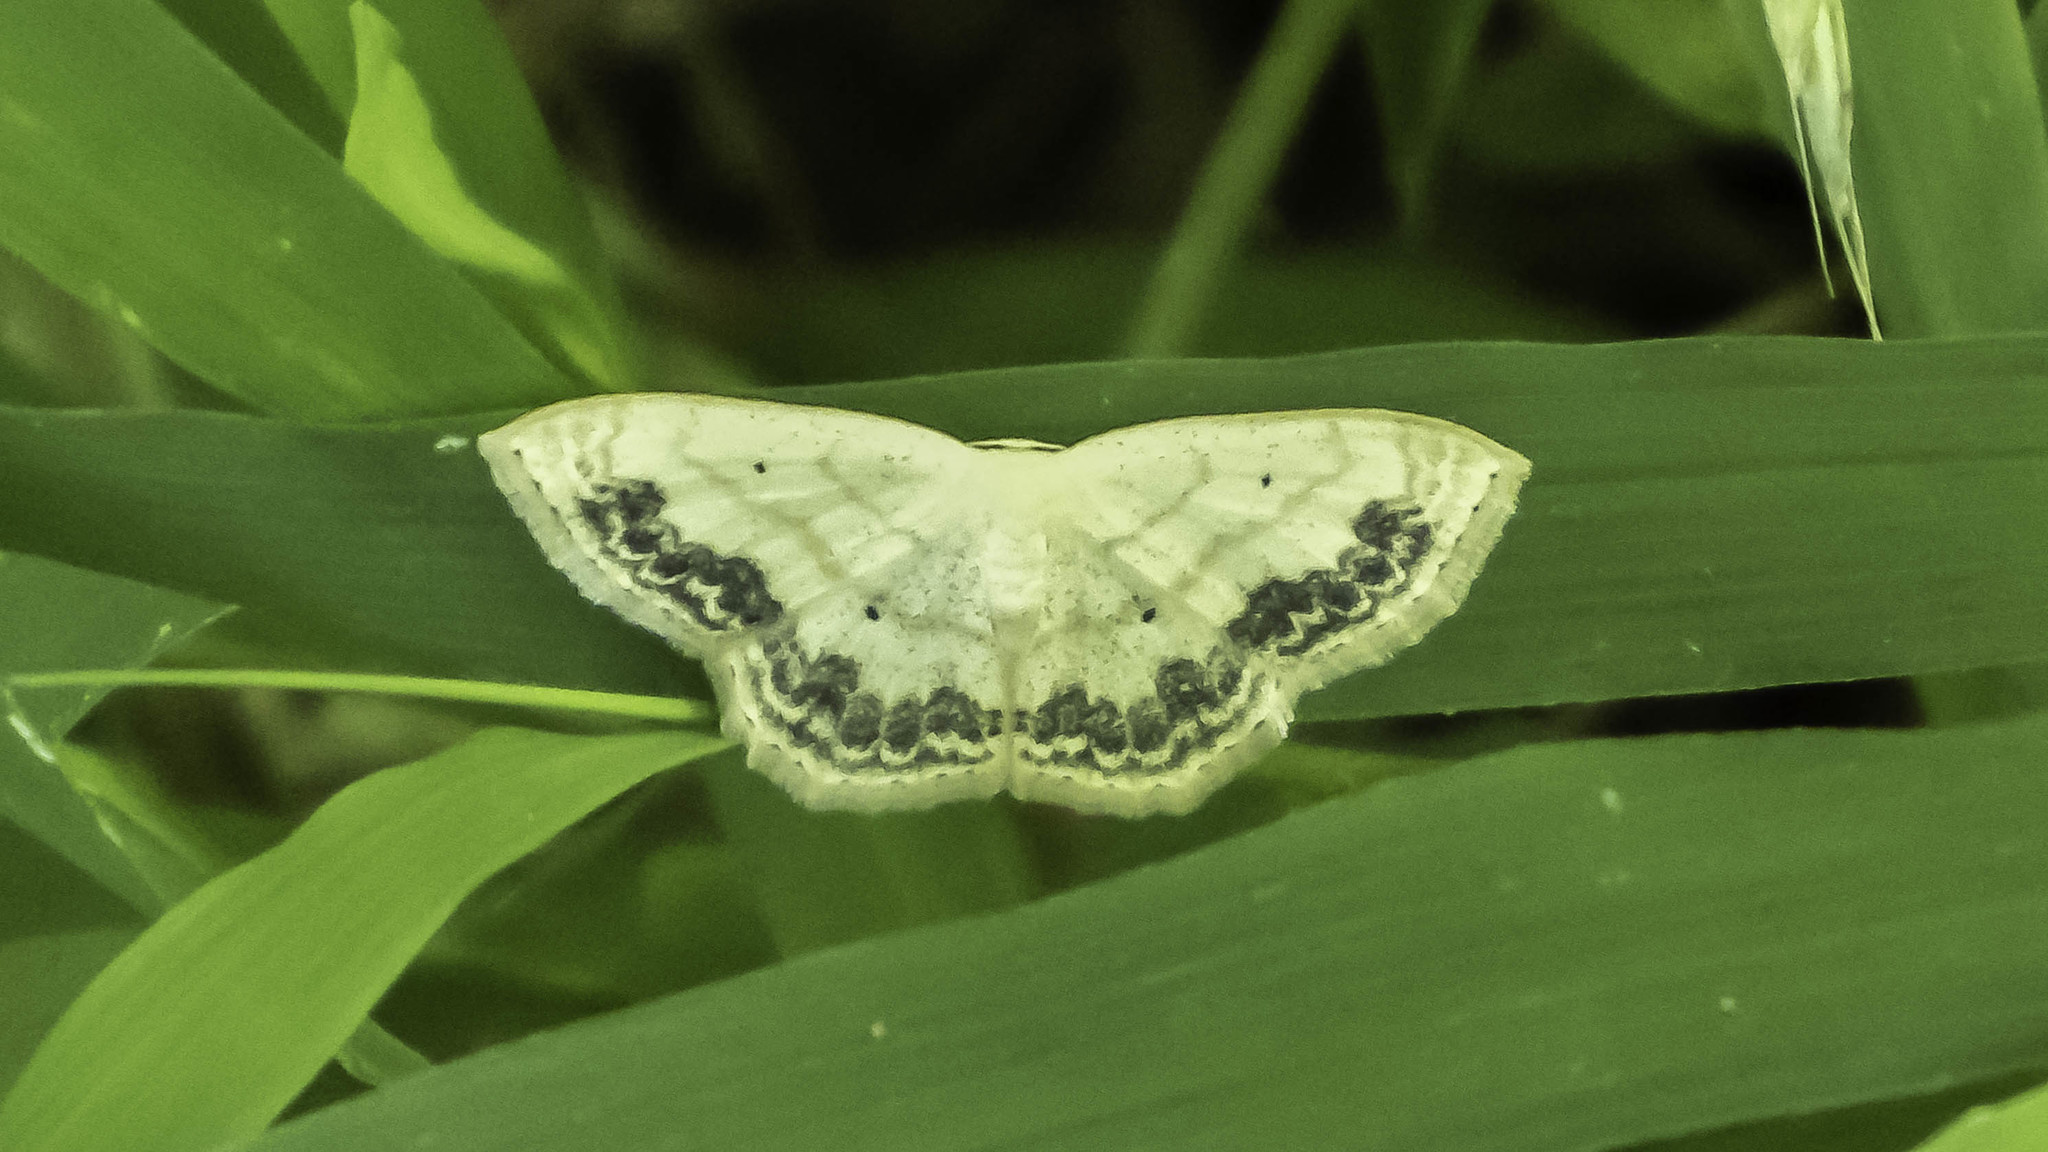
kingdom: Animalia
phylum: Arthropoda
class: Insecta
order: Lepidoptera
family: Geometridae
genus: Scopula
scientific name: Scopula limboundata
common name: Large lace border
